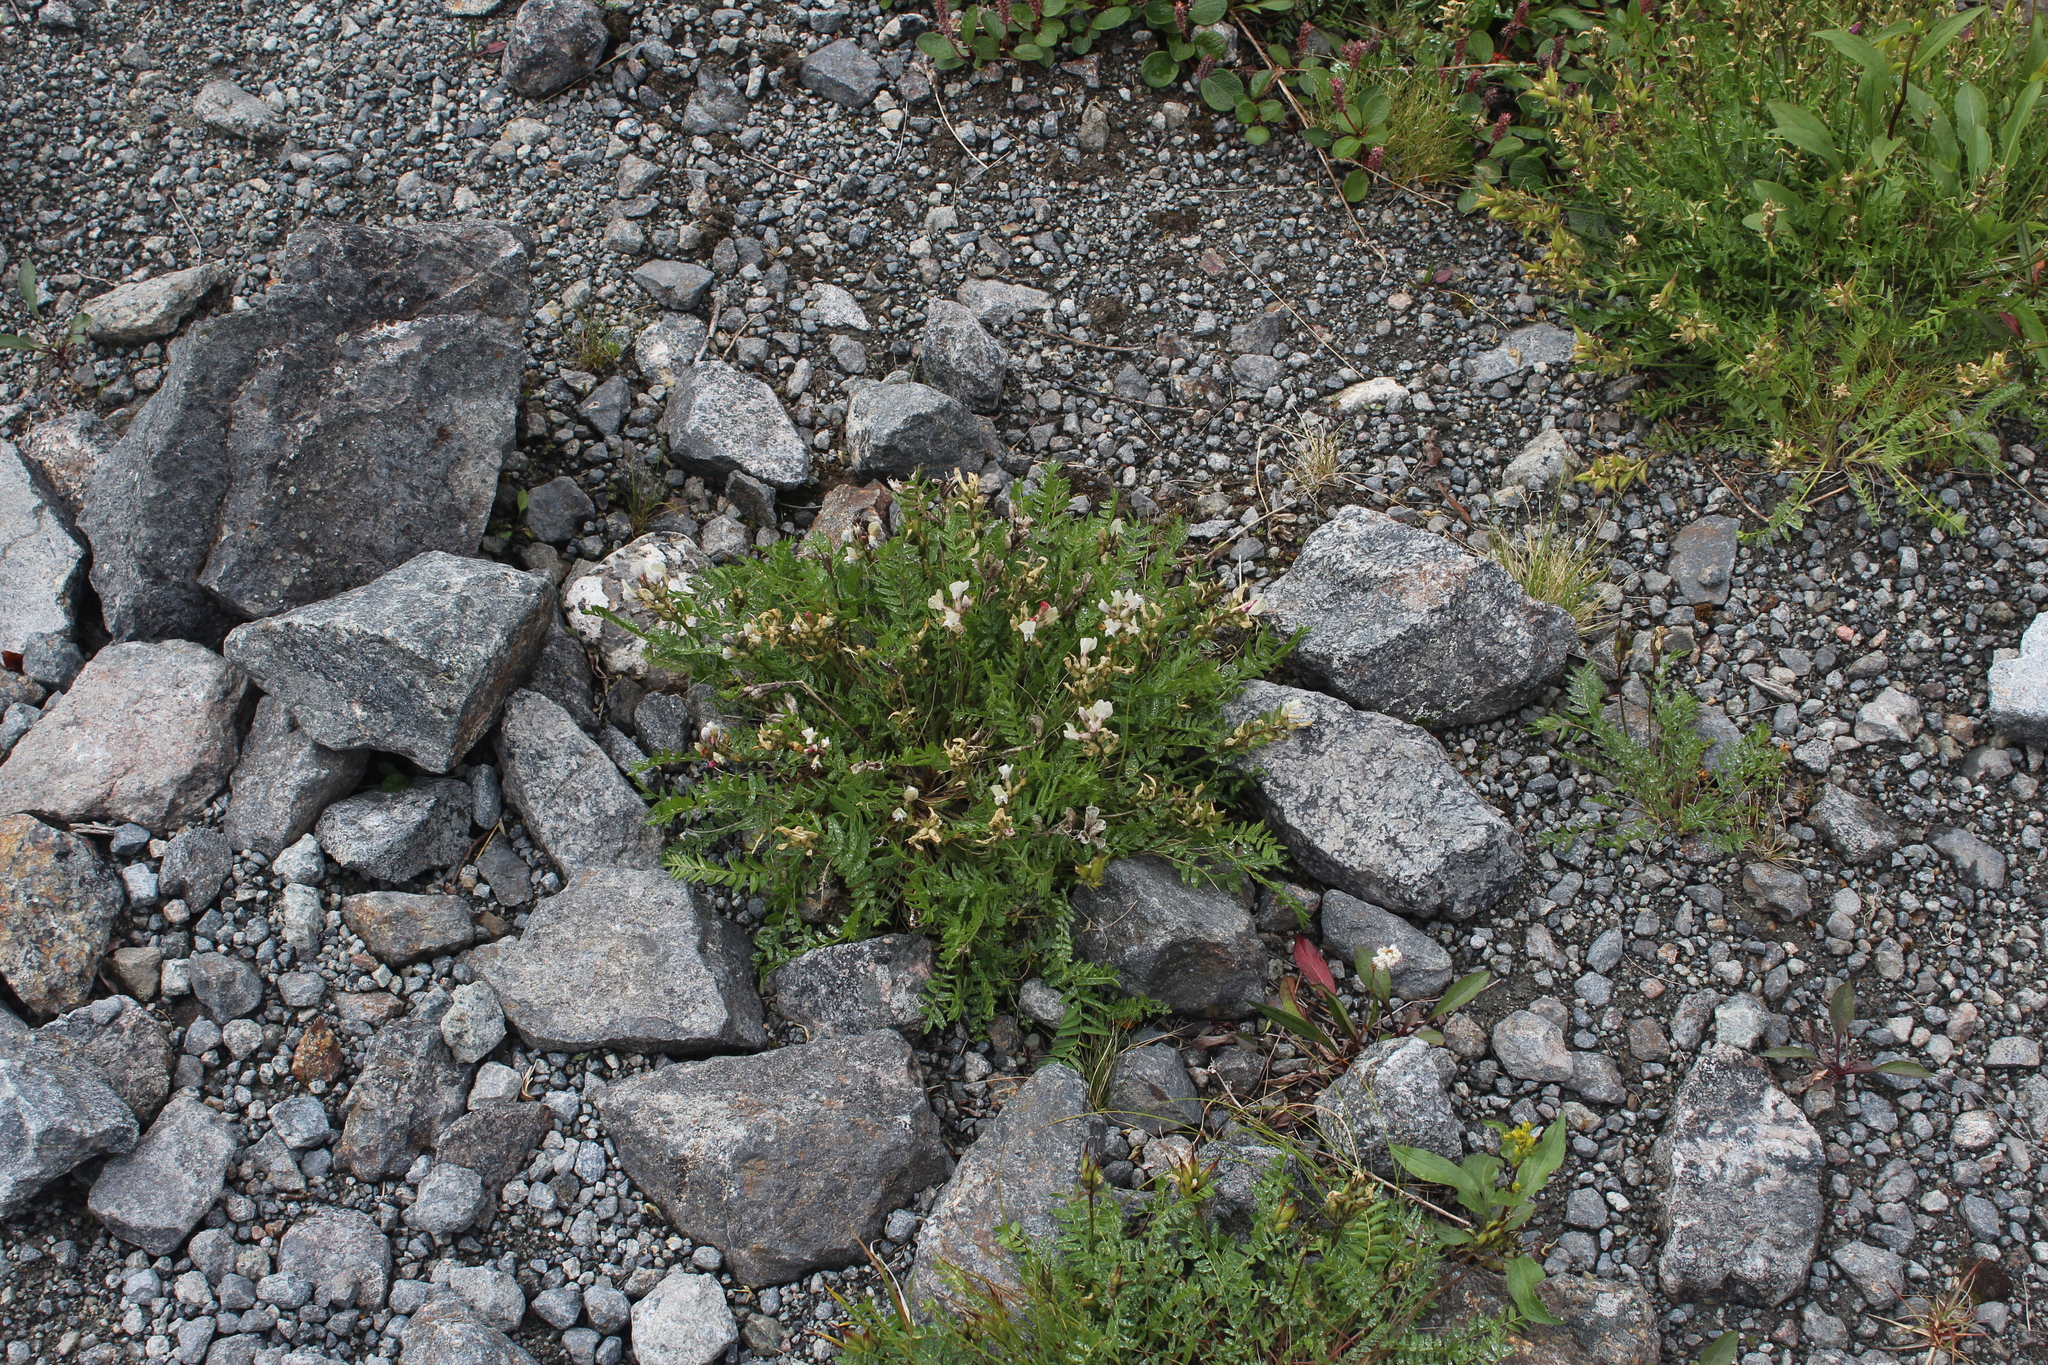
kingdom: Plantae
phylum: Tracheophyta
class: Magnoliopsida
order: Fabales
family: Fabaceae
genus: Oxytropis
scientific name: Oxytropis sordida
